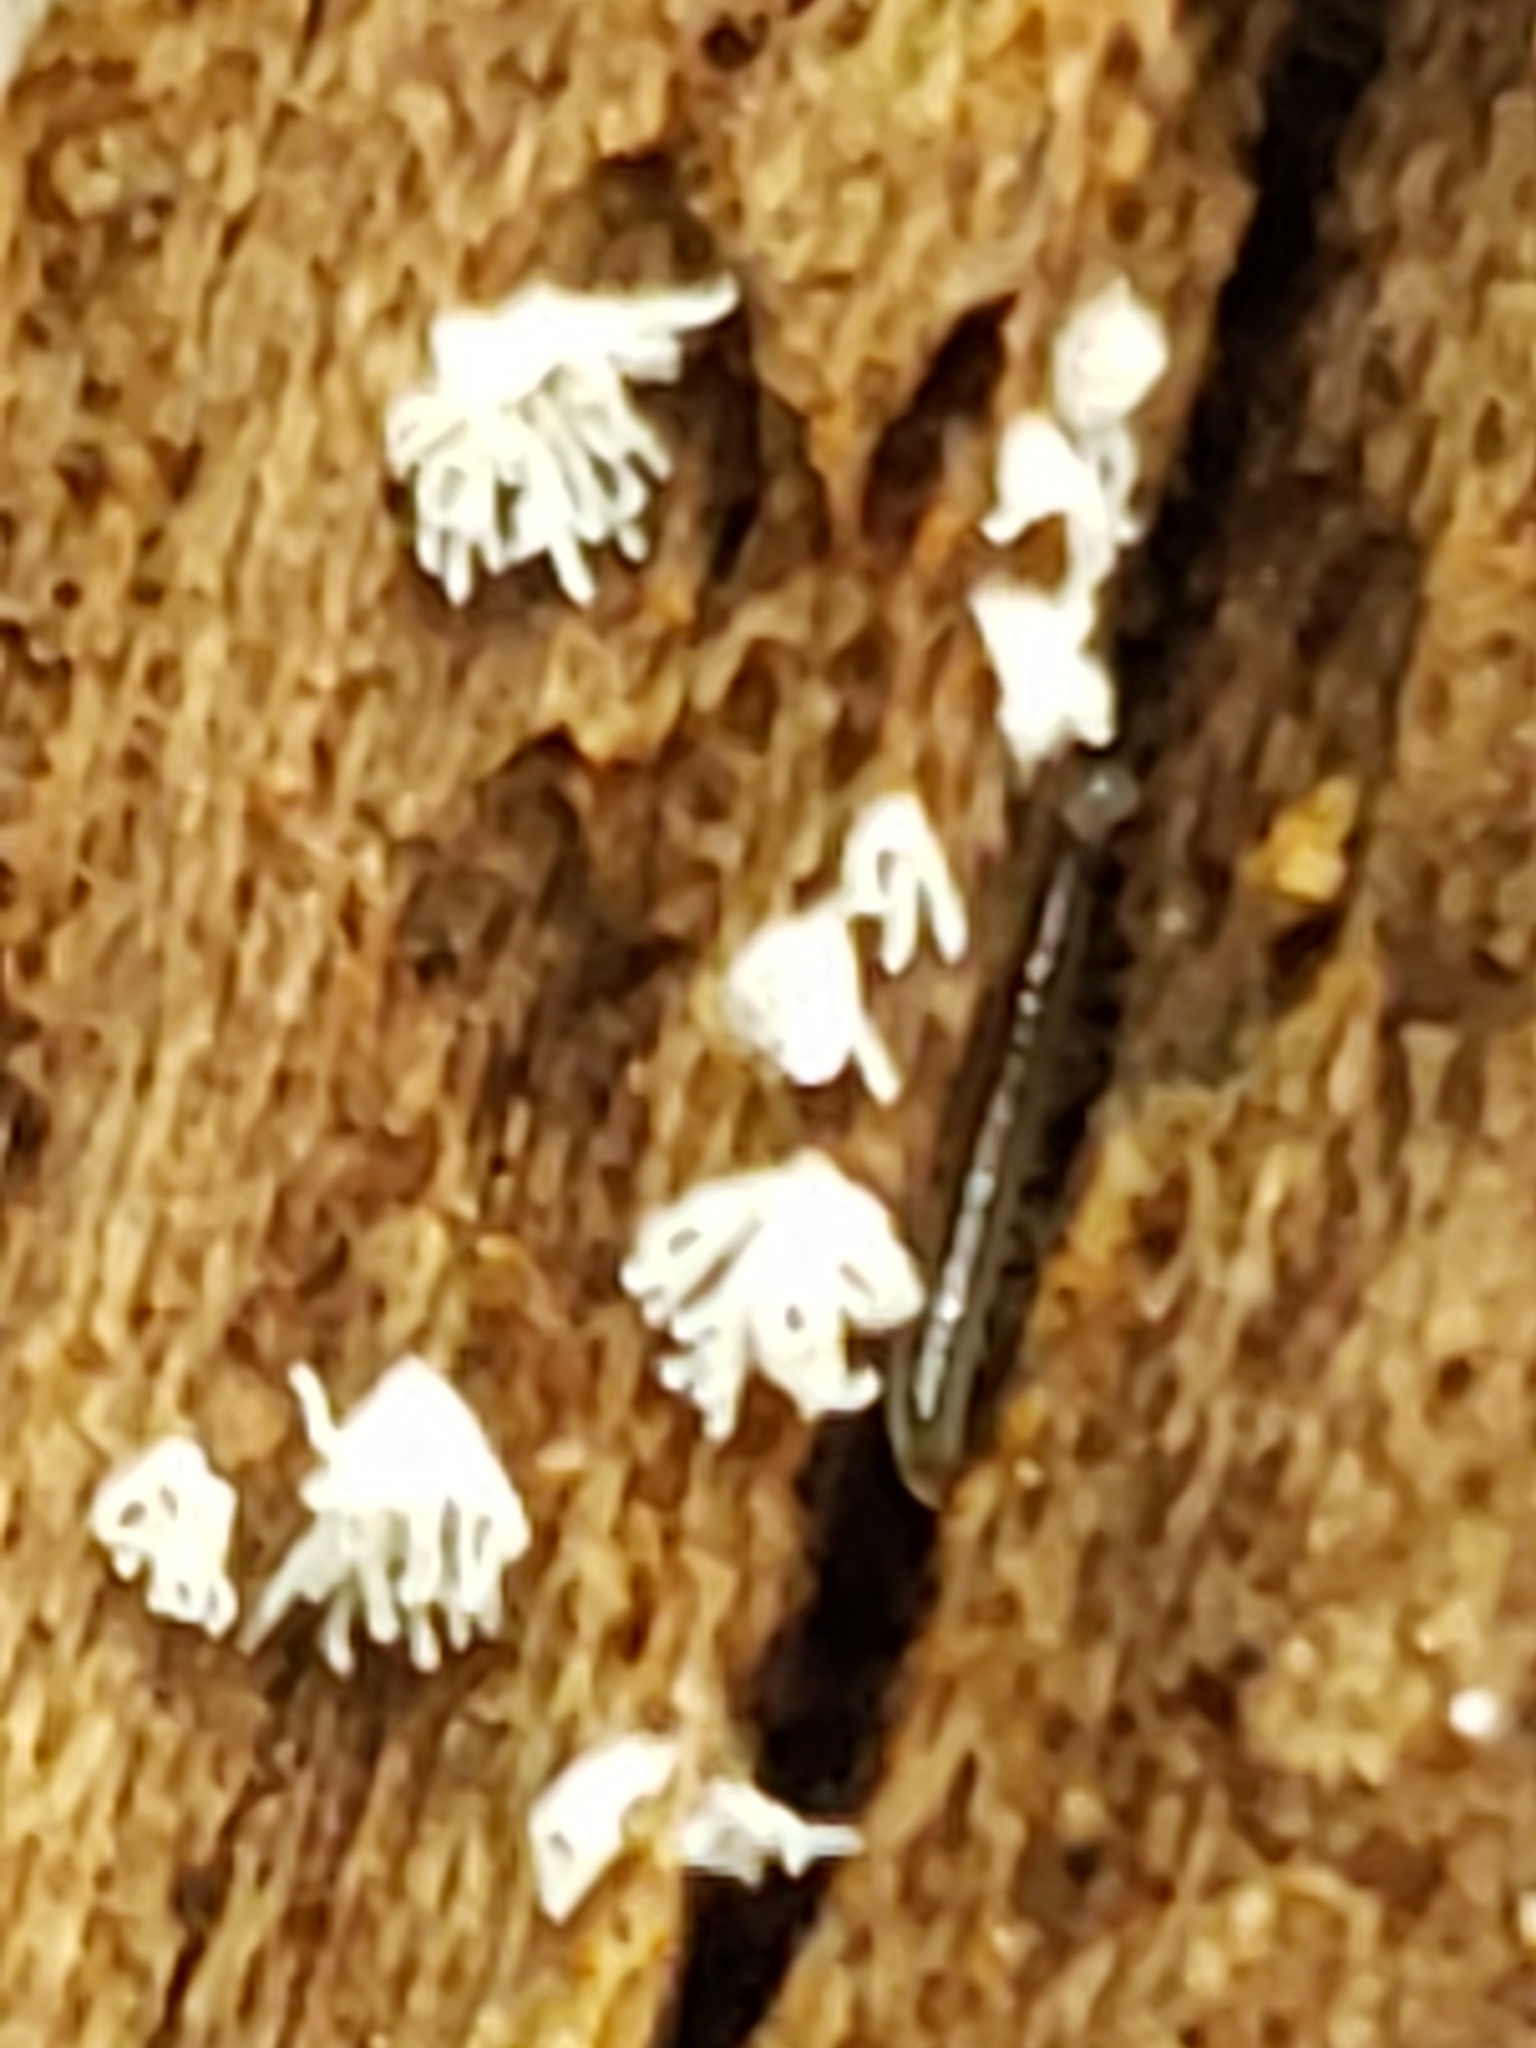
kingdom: Protozoa
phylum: Mycetozoa
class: Protosteliomycetes
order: Ceratiomyxales
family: Ceratiomyxaceae
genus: Ceratiomyxa
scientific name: Ceratiomyxa fruticulosa
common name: Honeycomb coral slime mold
